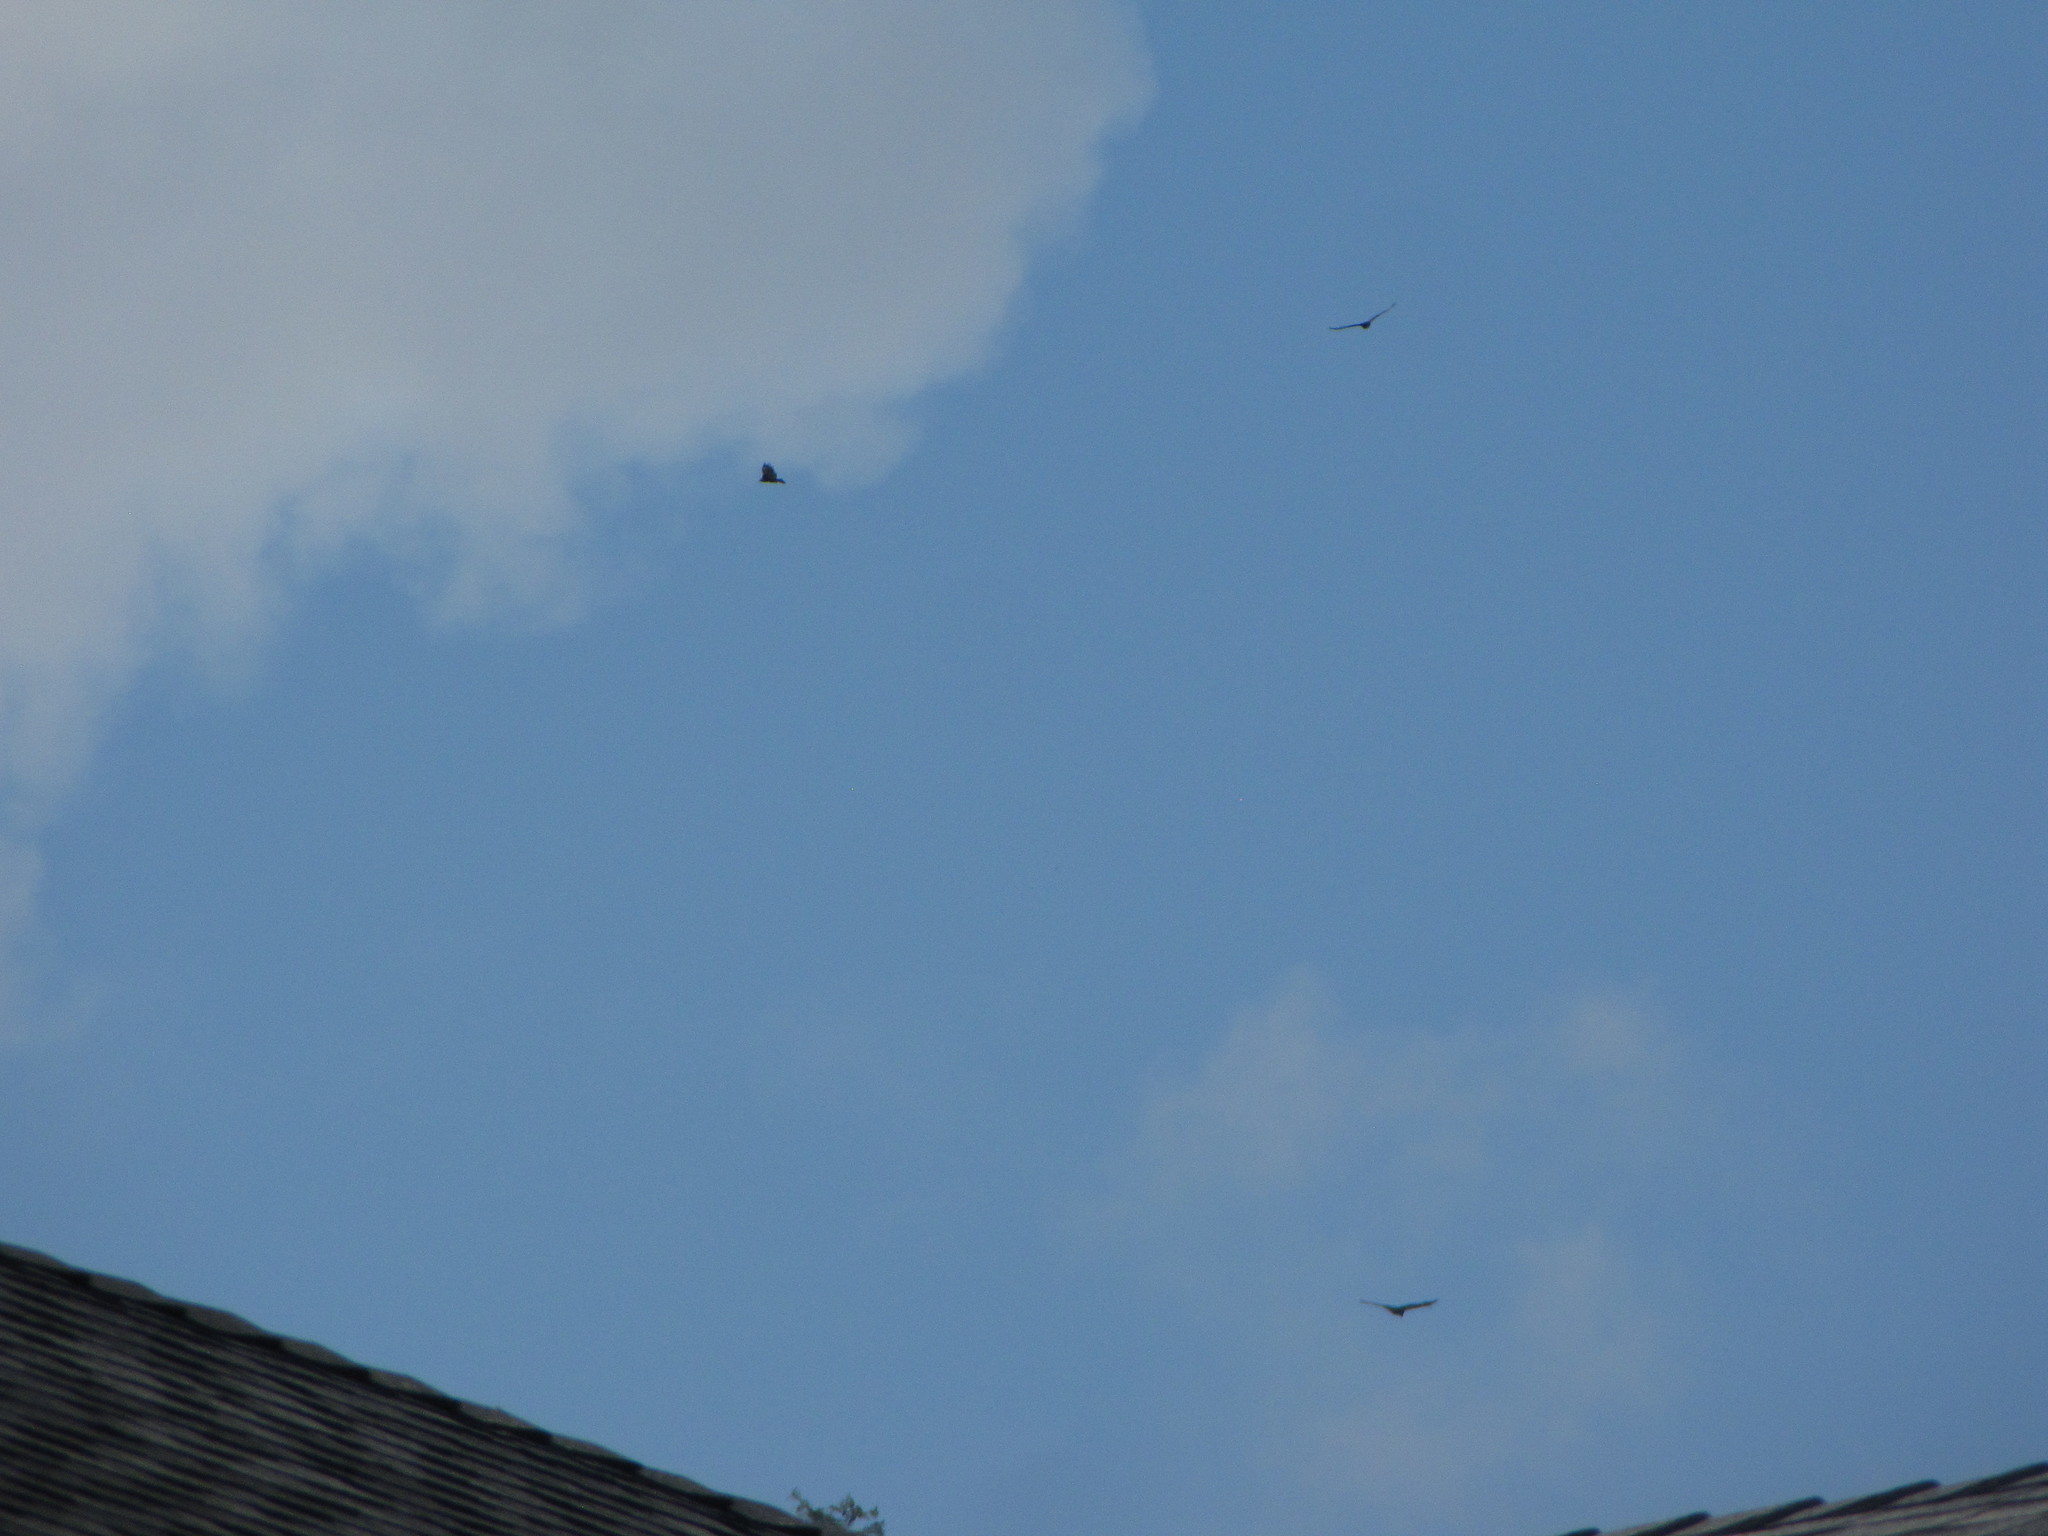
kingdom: Animalia
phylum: Chordata
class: Aves
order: Accipitriformes
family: Cathartidae
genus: Cathartes
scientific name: Cathartes aura
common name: Turkey vulture
